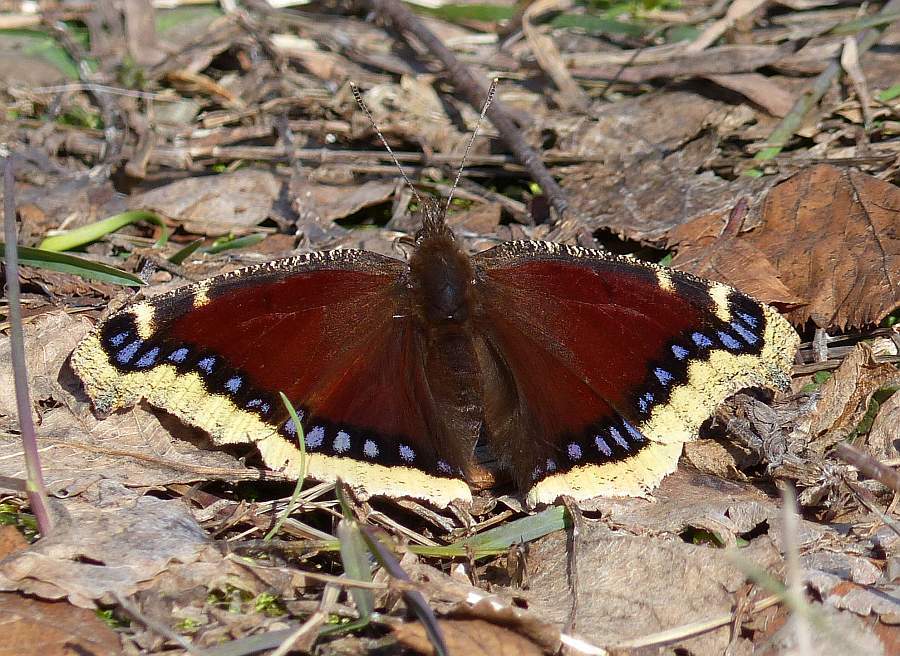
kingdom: Animalia
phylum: Arthropoda
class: Insecta
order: Lepidoptera
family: Nymphalidae
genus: Nymphalis
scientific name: Nymphalis antiopa
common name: Camberwell beauty
